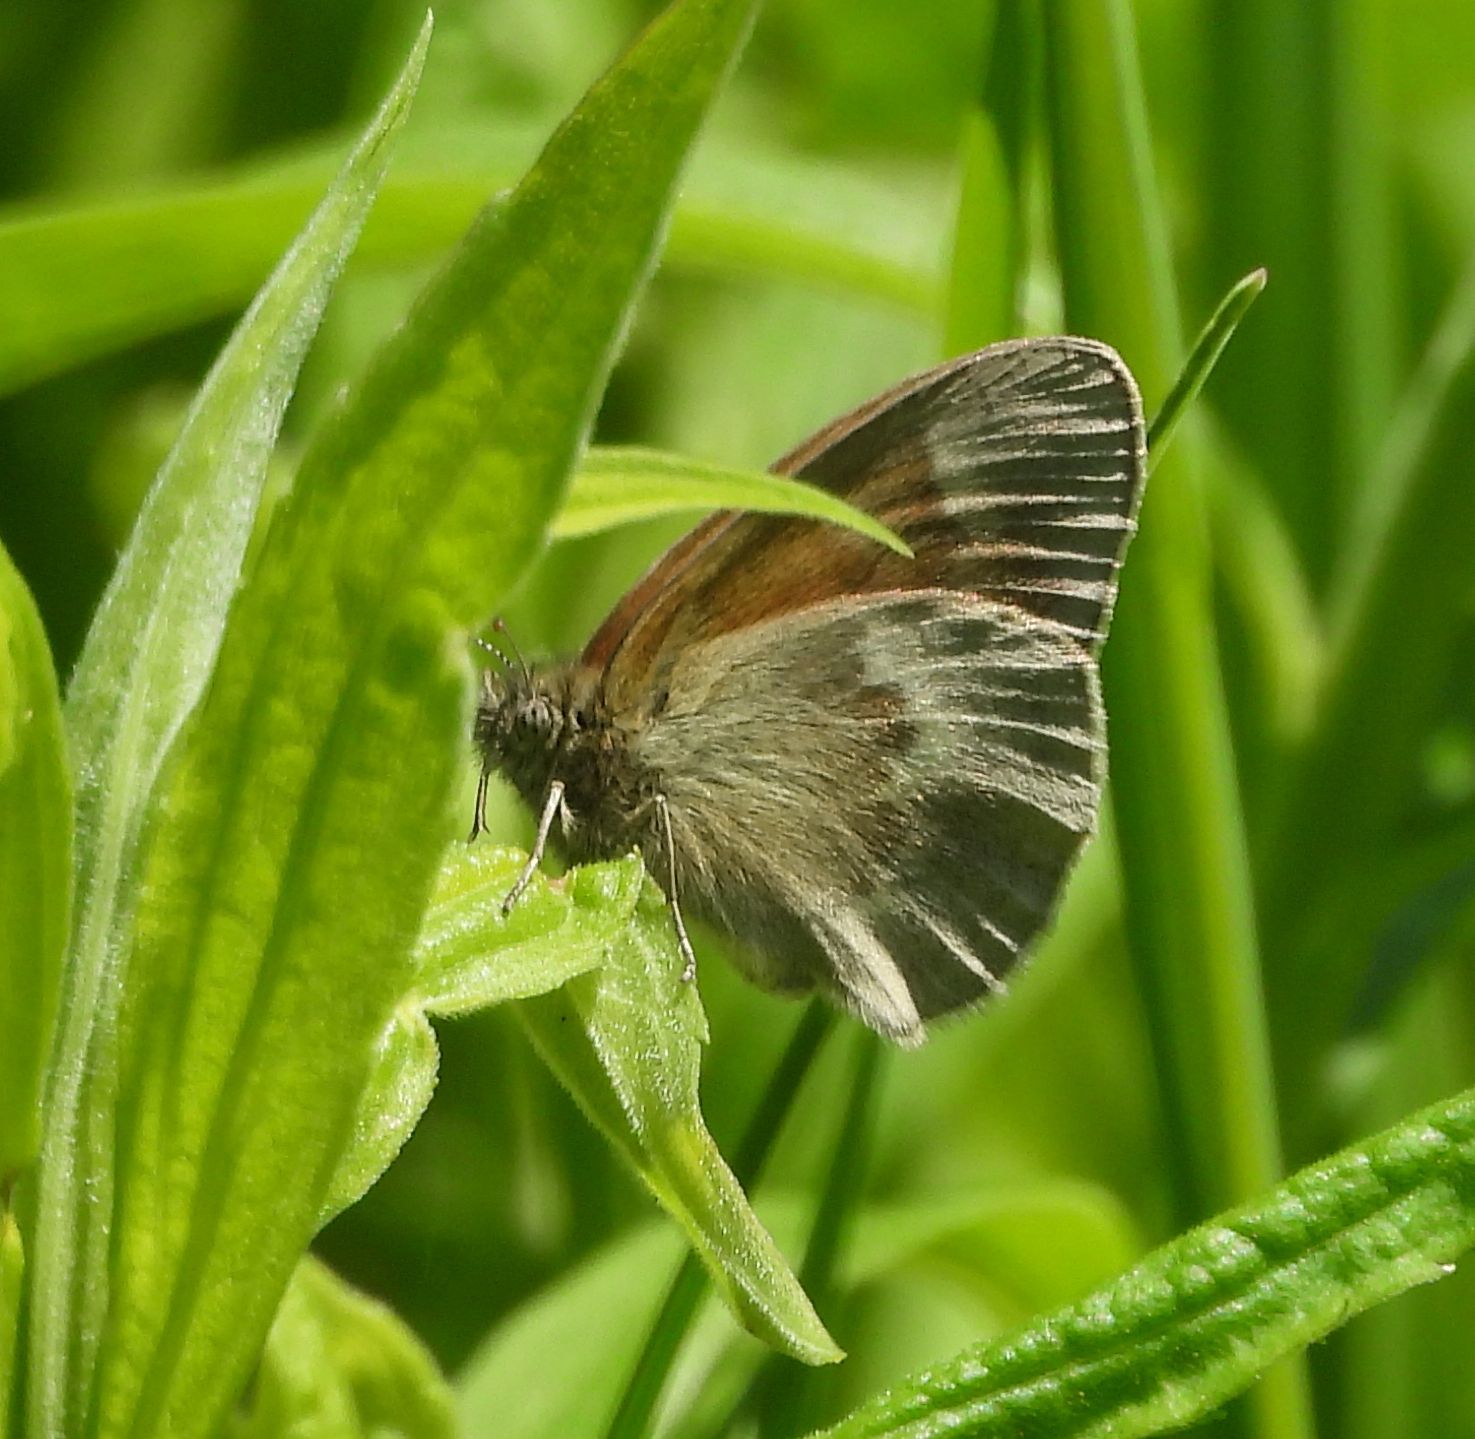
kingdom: Animalia
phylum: Arthropoda
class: Insecta
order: Lepidoptera
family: Nymphalidae
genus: Coenonympha
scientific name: Coenonympha california
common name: Common ringlet
